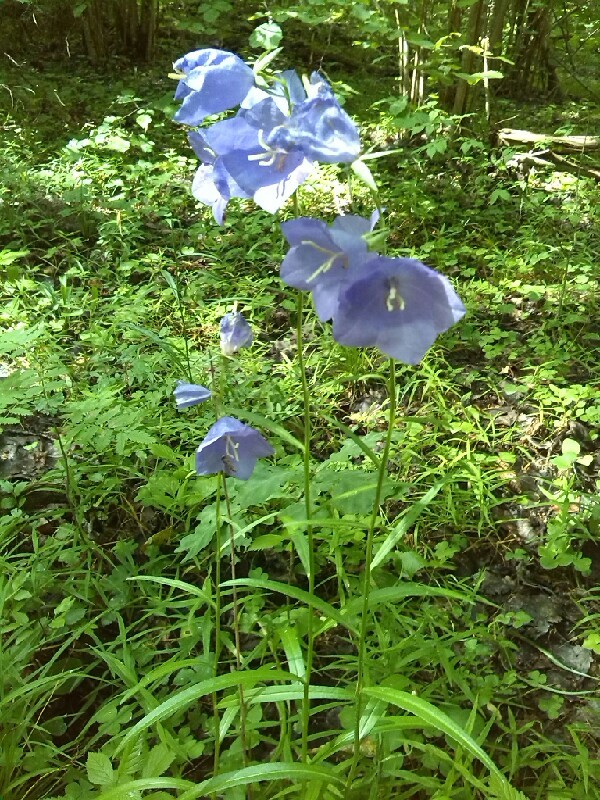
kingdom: Plantae
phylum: Tracheophyta
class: Magnoliopsida
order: Asterales
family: Campanulaceae
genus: Campanula
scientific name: Campanula persicifolia
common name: Peach-leaved bellflower
